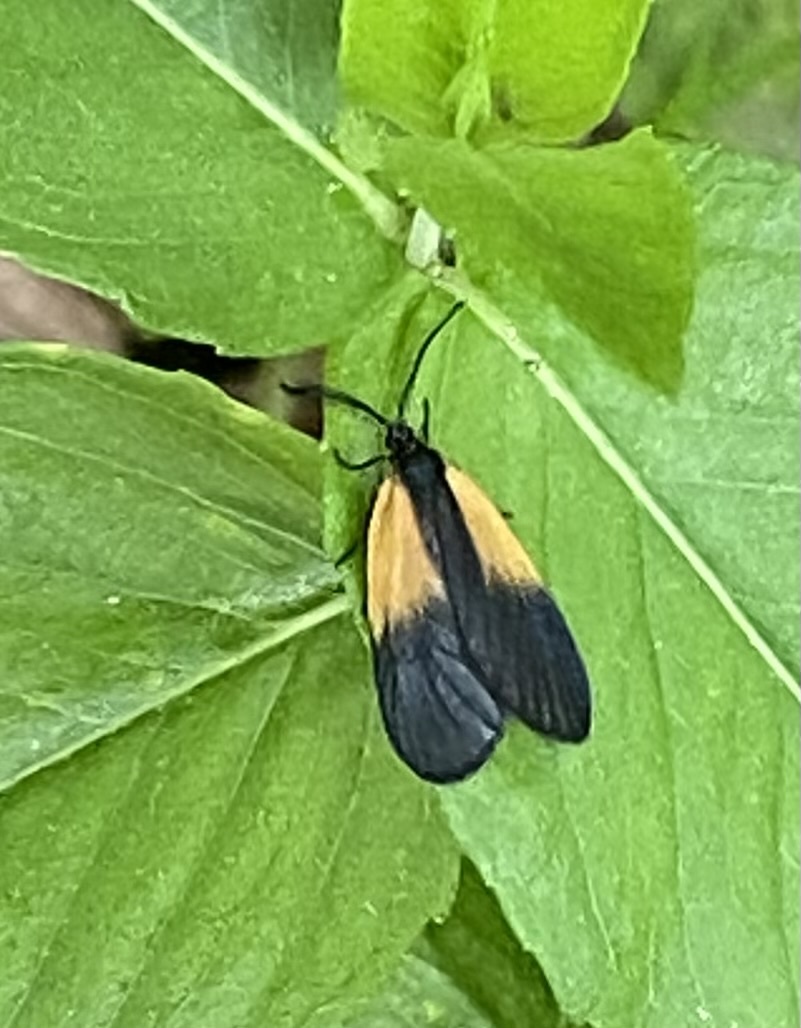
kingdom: Animalia
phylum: Arthropoda
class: Insecta
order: Lepidoptera
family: Zygaenidae
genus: Malthaca
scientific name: Malthaca dimidiata
